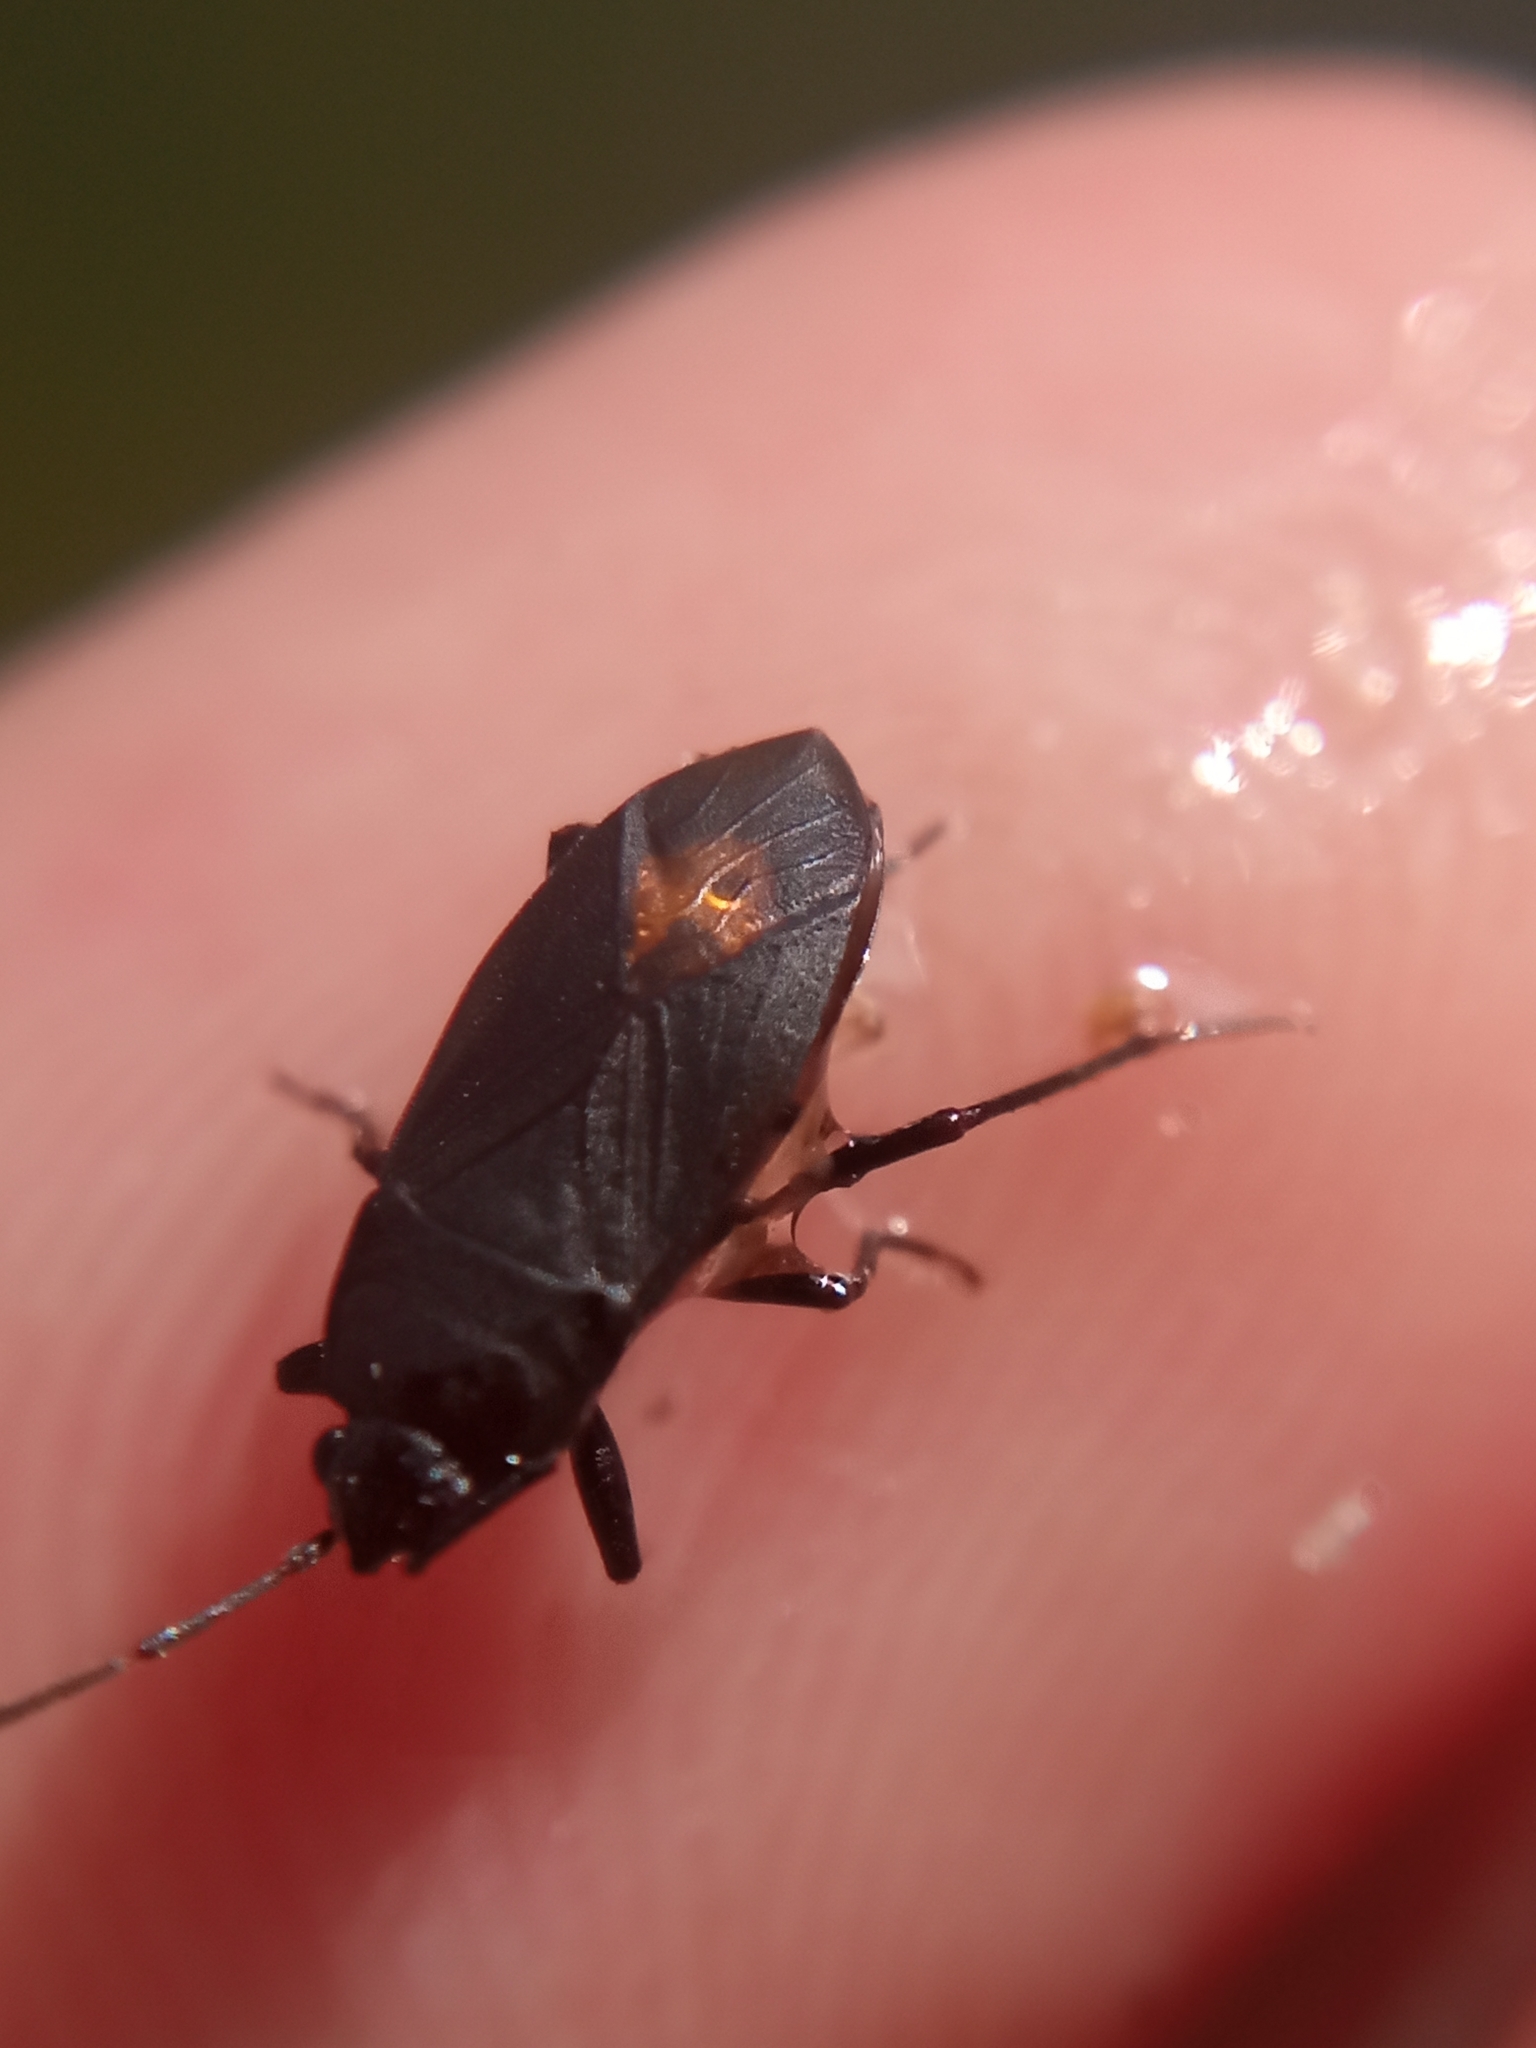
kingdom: Animalia
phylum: Arthropoda
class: Insecta
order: Hemiptera
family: Rhyparochromidae
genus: Aphanus
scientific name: Aphanus rolandri
